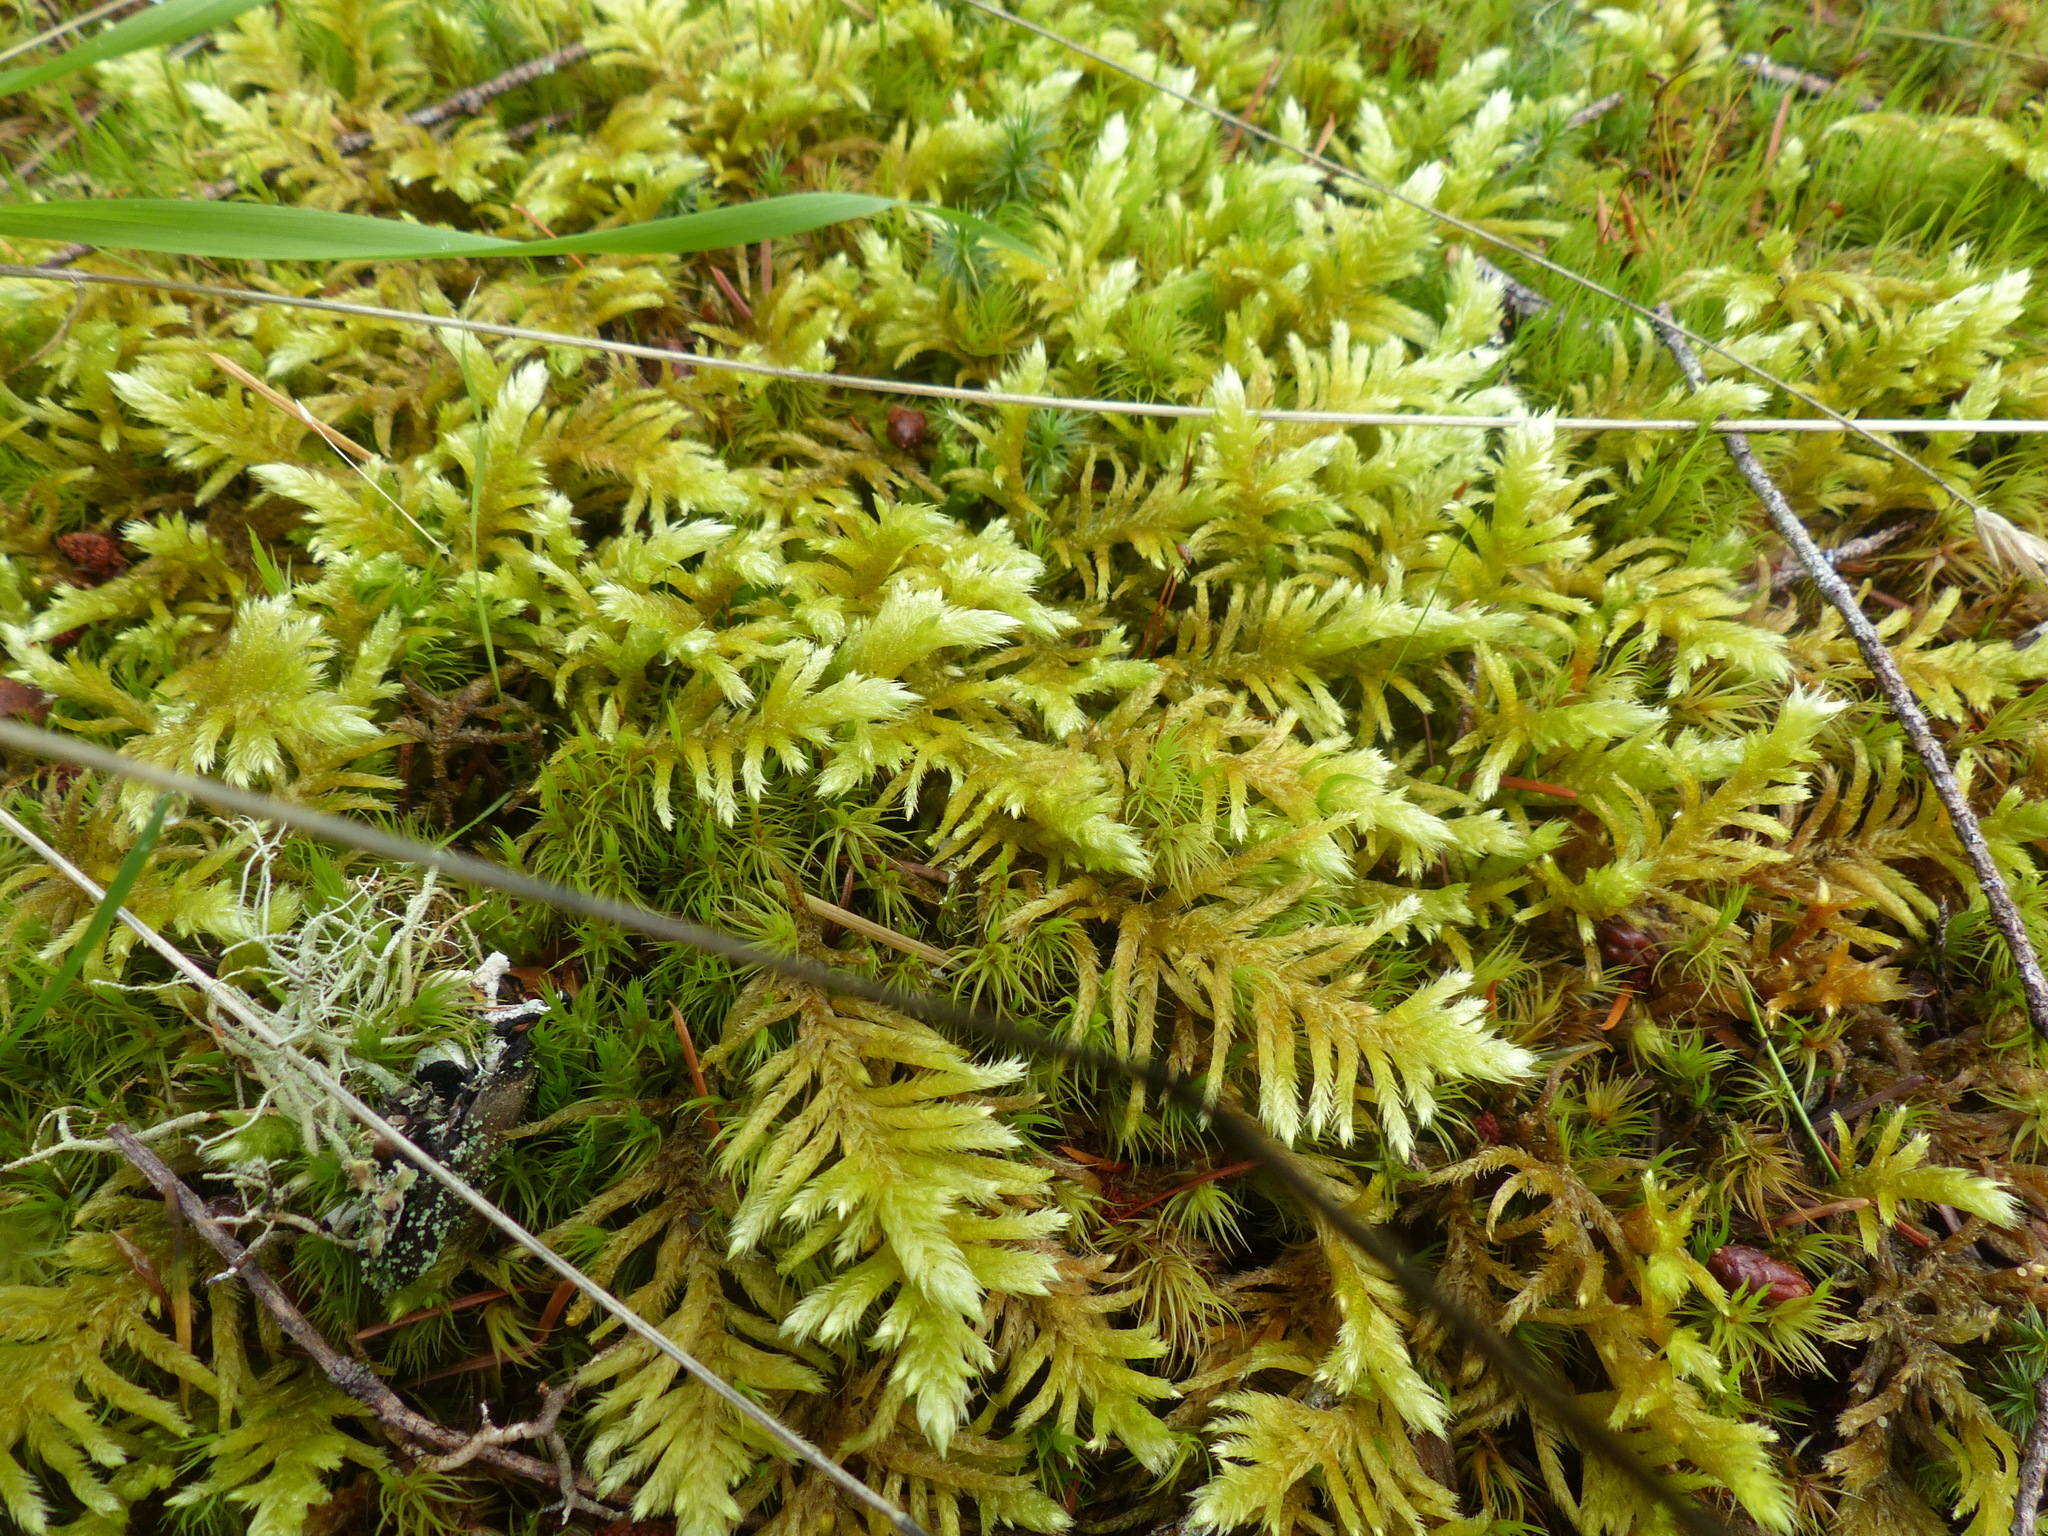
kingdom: Plantae
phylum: Bryophyta
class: Bryopsida
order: Hypnales
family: Brachytheciaceae
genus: Homalothecium
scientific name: Homalothecium megaptilum
